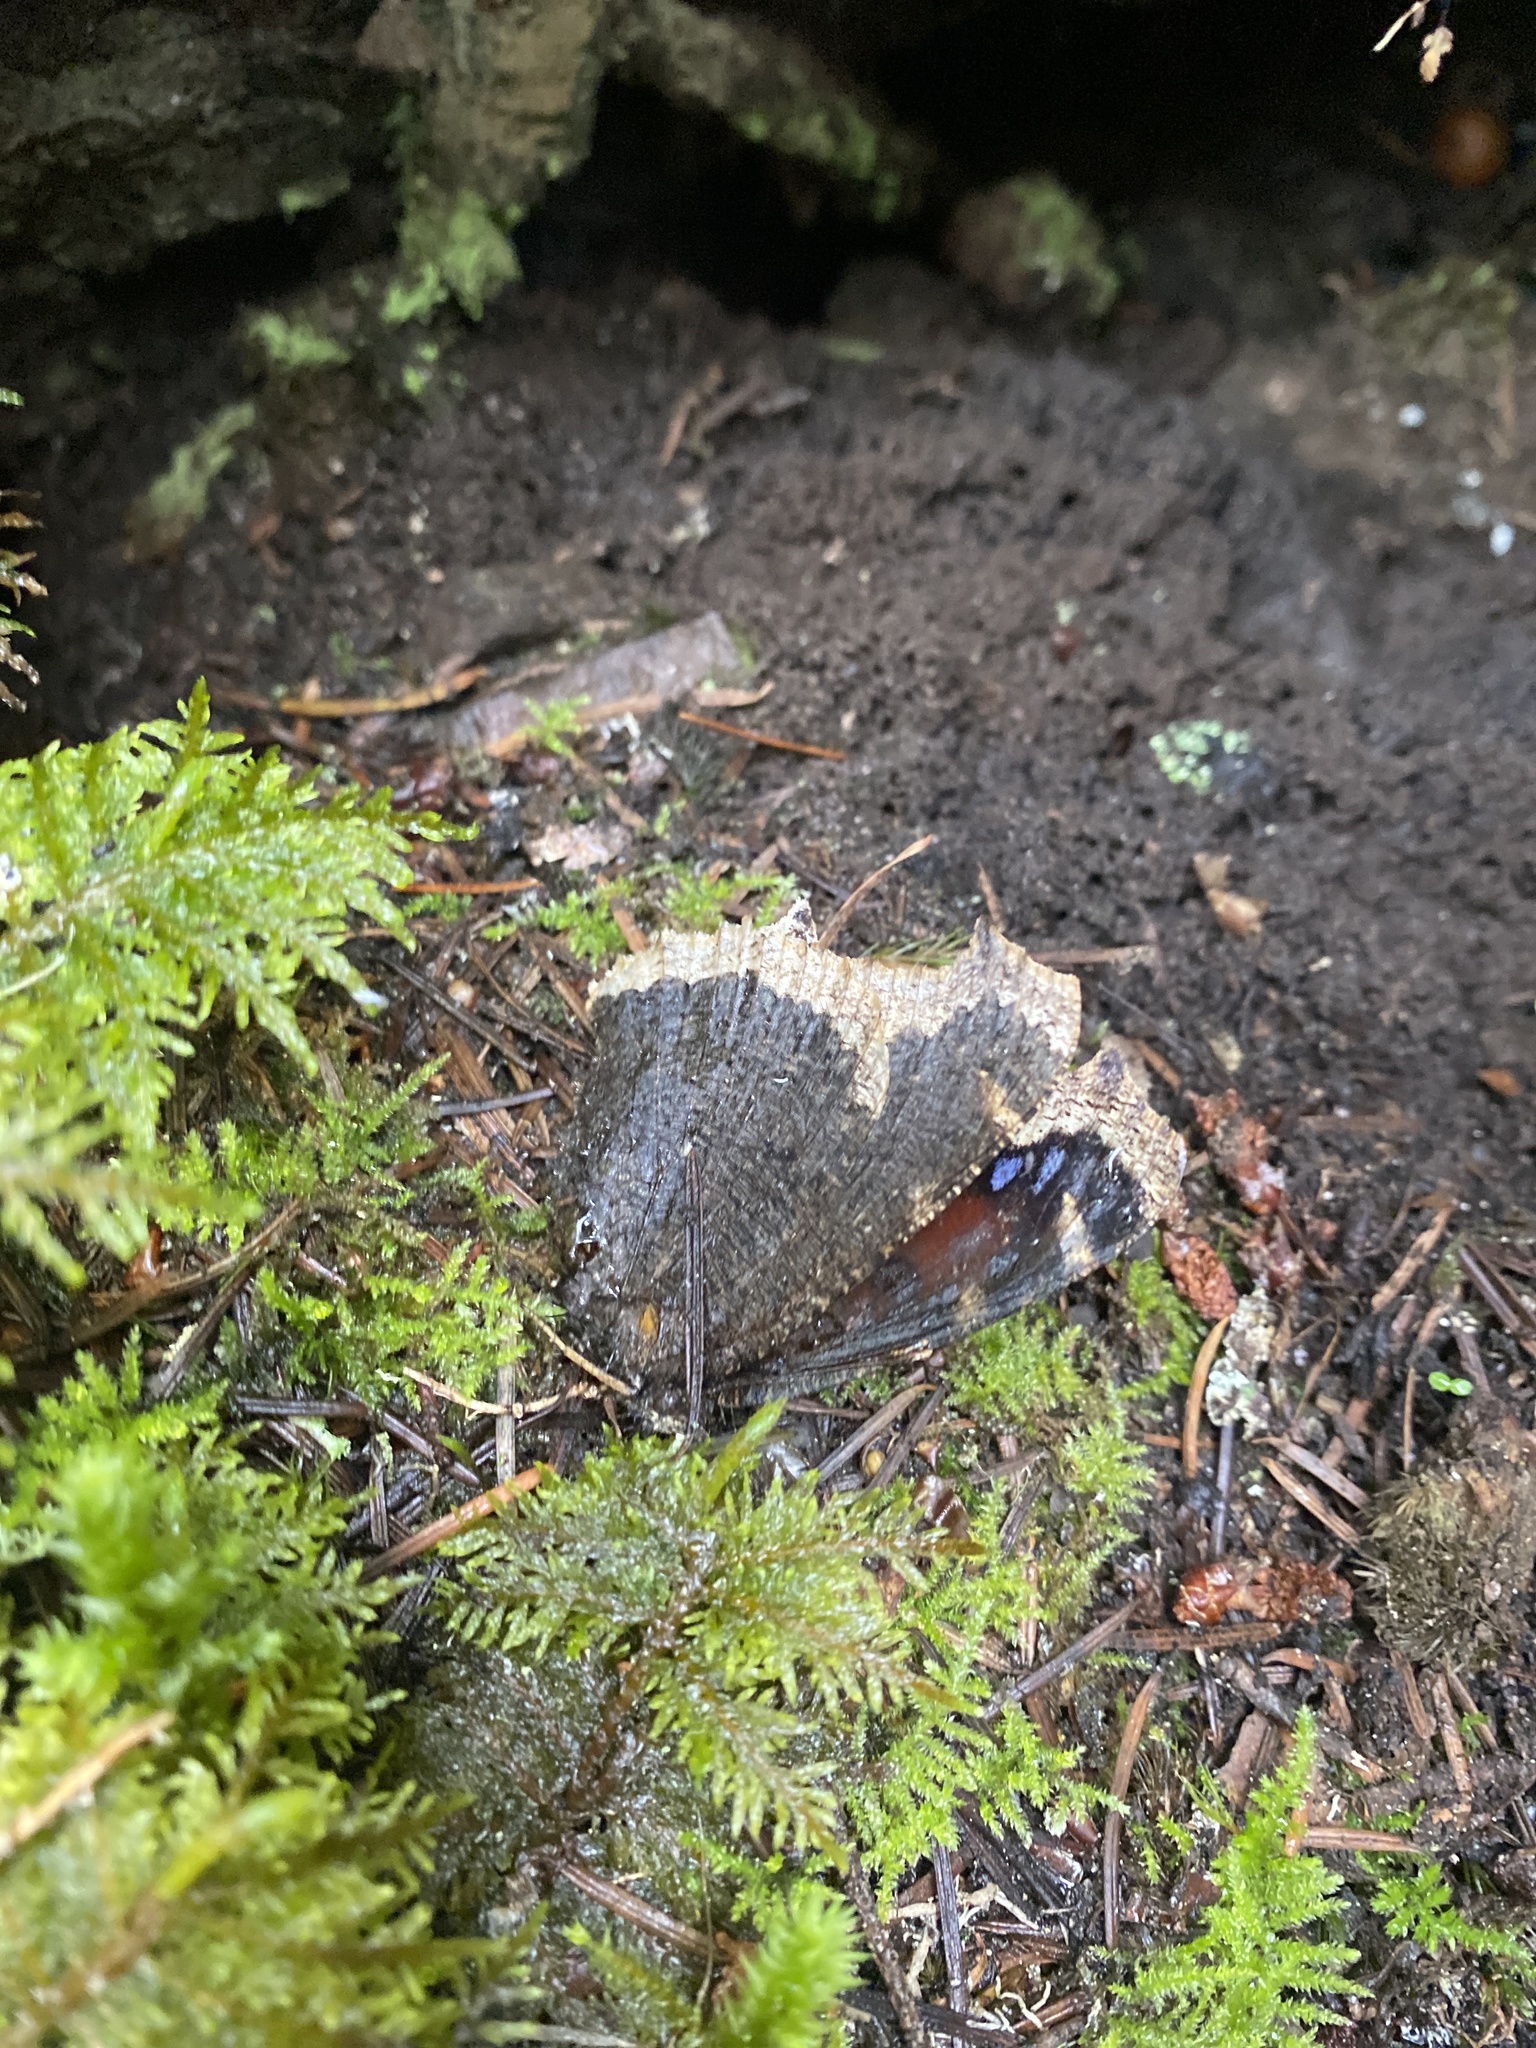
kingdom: Animalia
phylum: Arthropoda
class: Insecta
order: Lepidoptera
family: Nymphalidae
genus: Nymphalis
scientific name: Nymphalis antiopa
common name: Camberwell beauty
